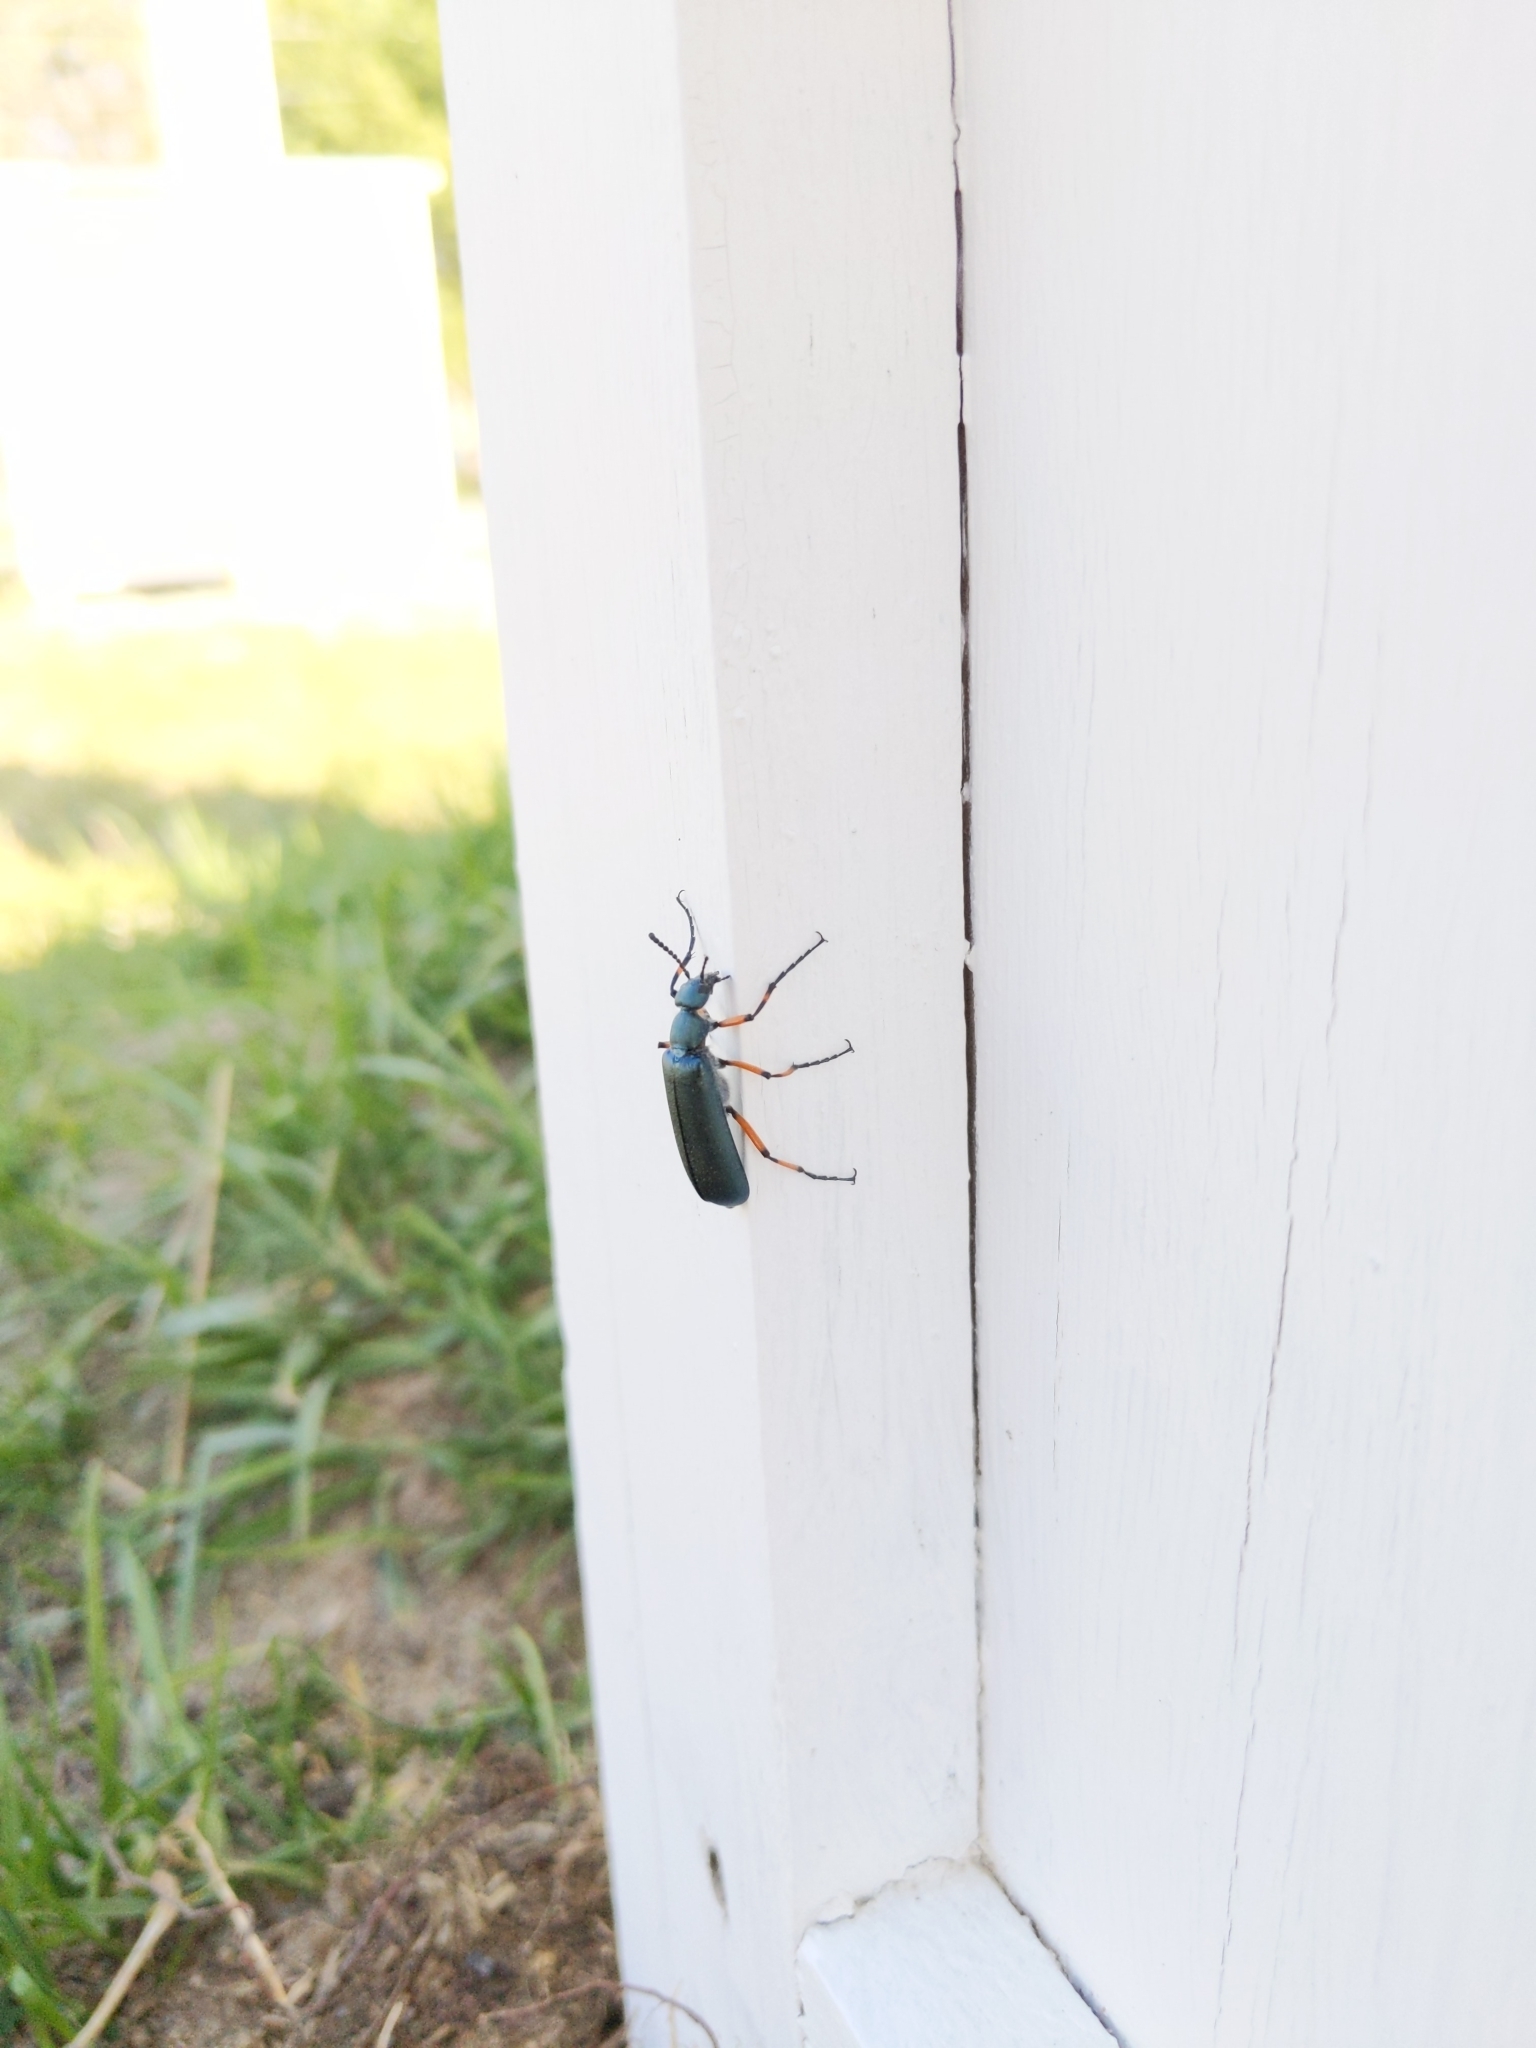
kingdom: Animalia
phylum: Arthropoda
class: Insecta
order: Coleoptera
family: Meloidae
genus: Lytta
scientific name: Lytta sayi
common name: Say's blister beetle
